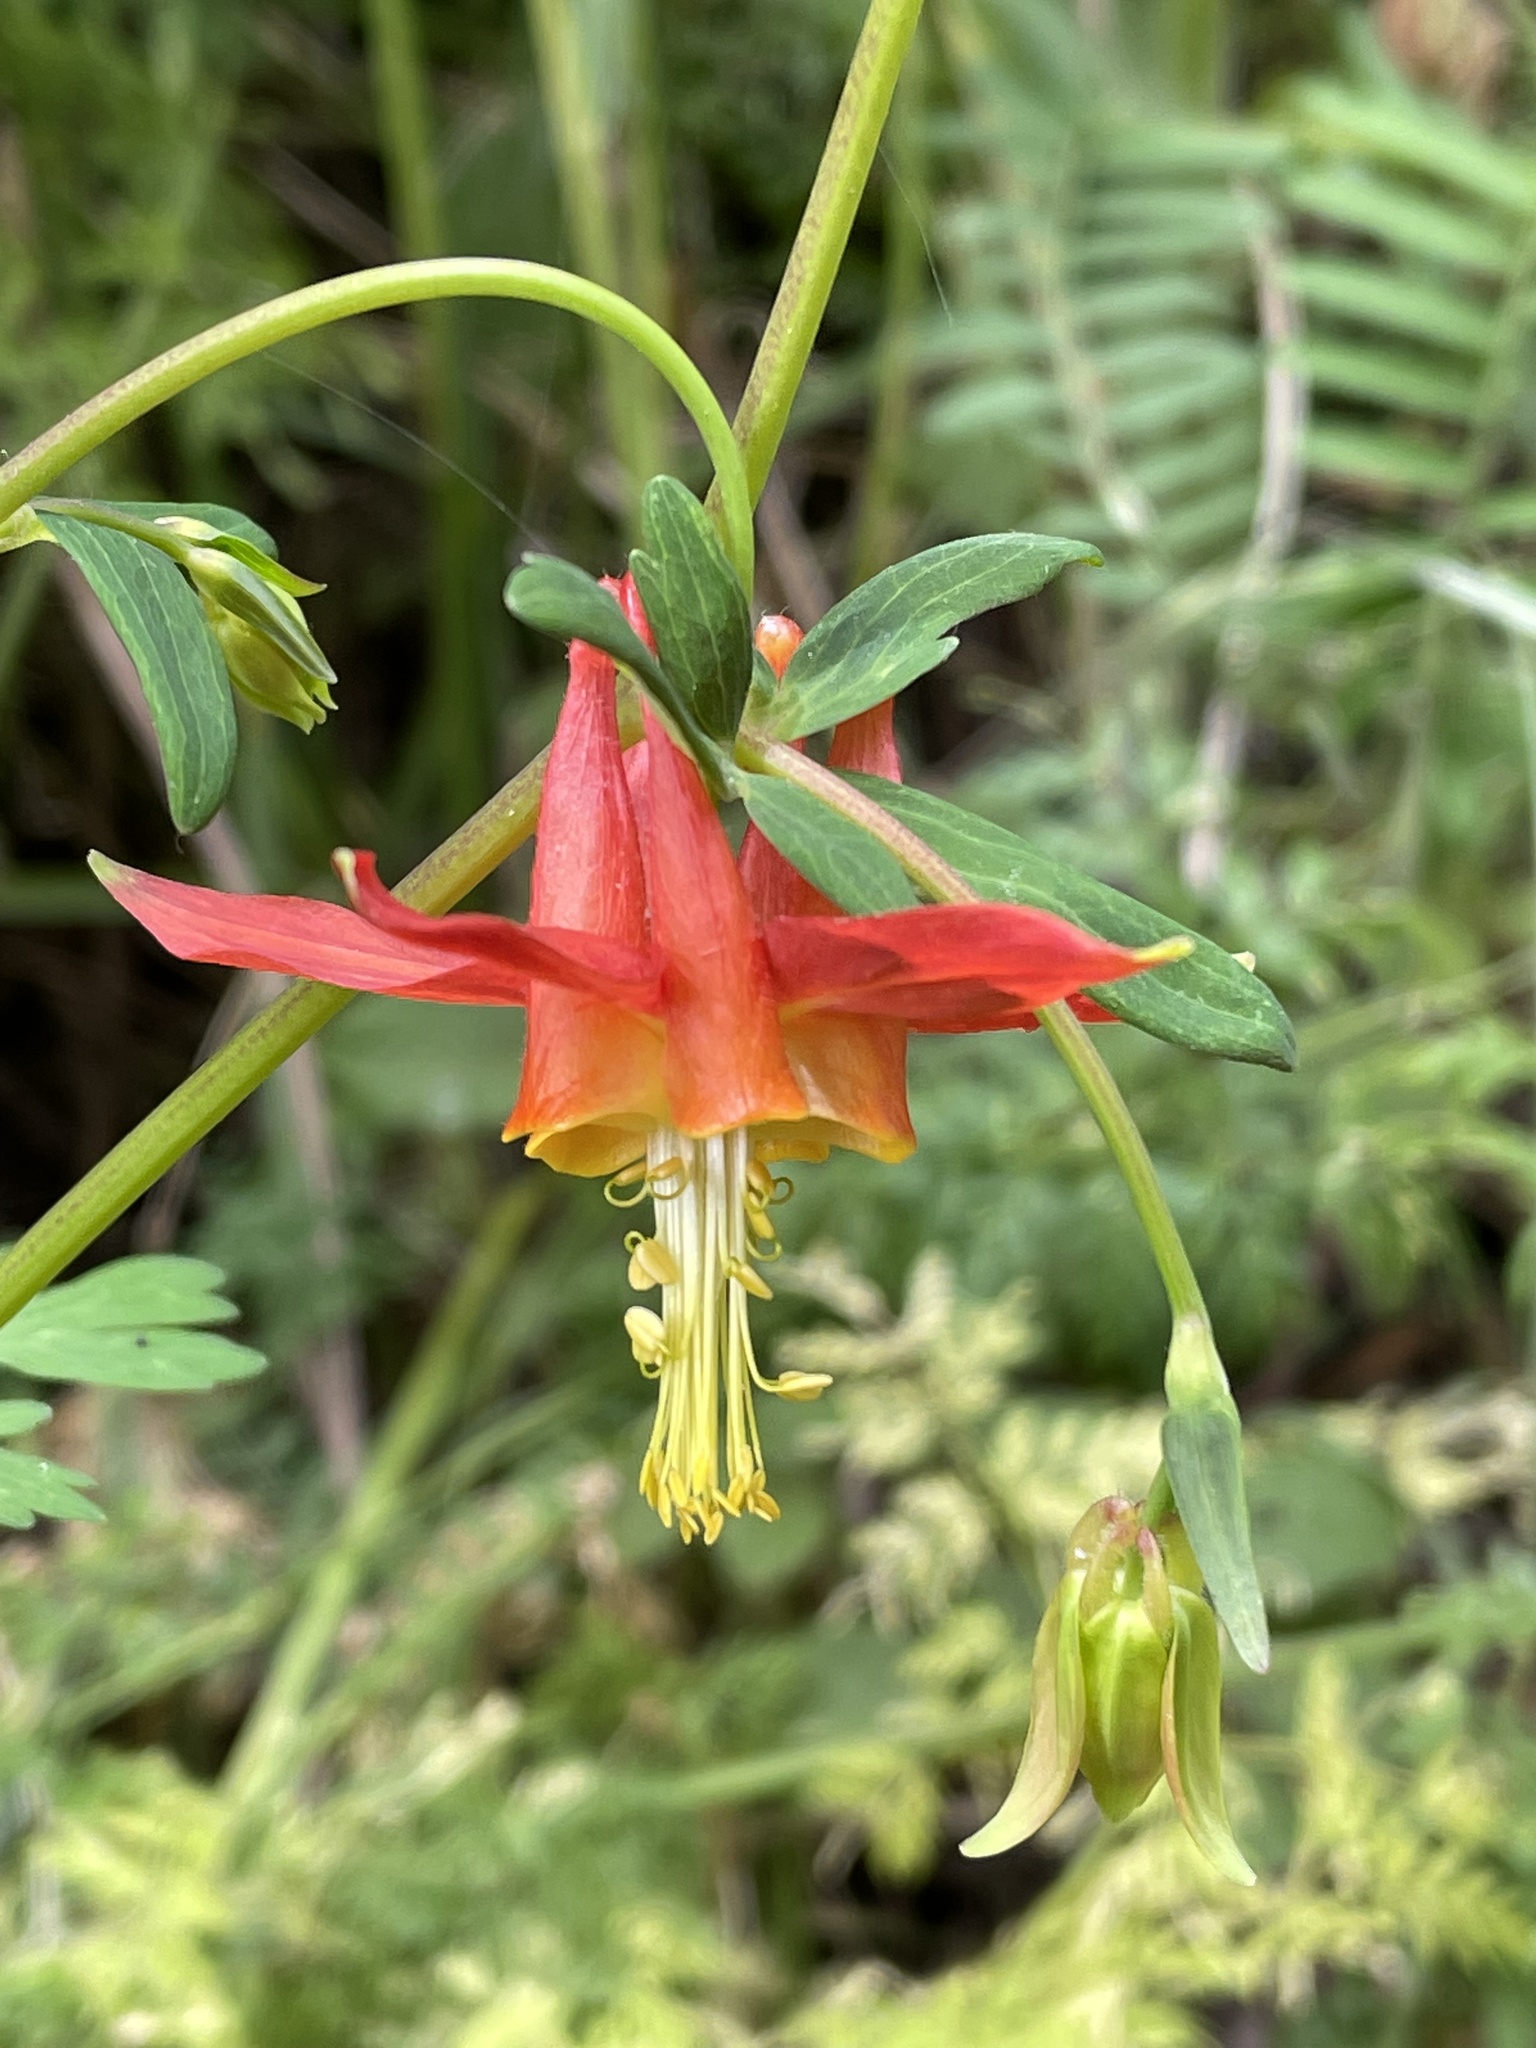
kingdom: Plantae
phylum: Tracheophyta
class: Magnoliopsida
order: Ranunculales
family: Ranunculaceae
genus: Aquilegia
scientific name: Aquilegia formosa
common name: Sitka columbine
